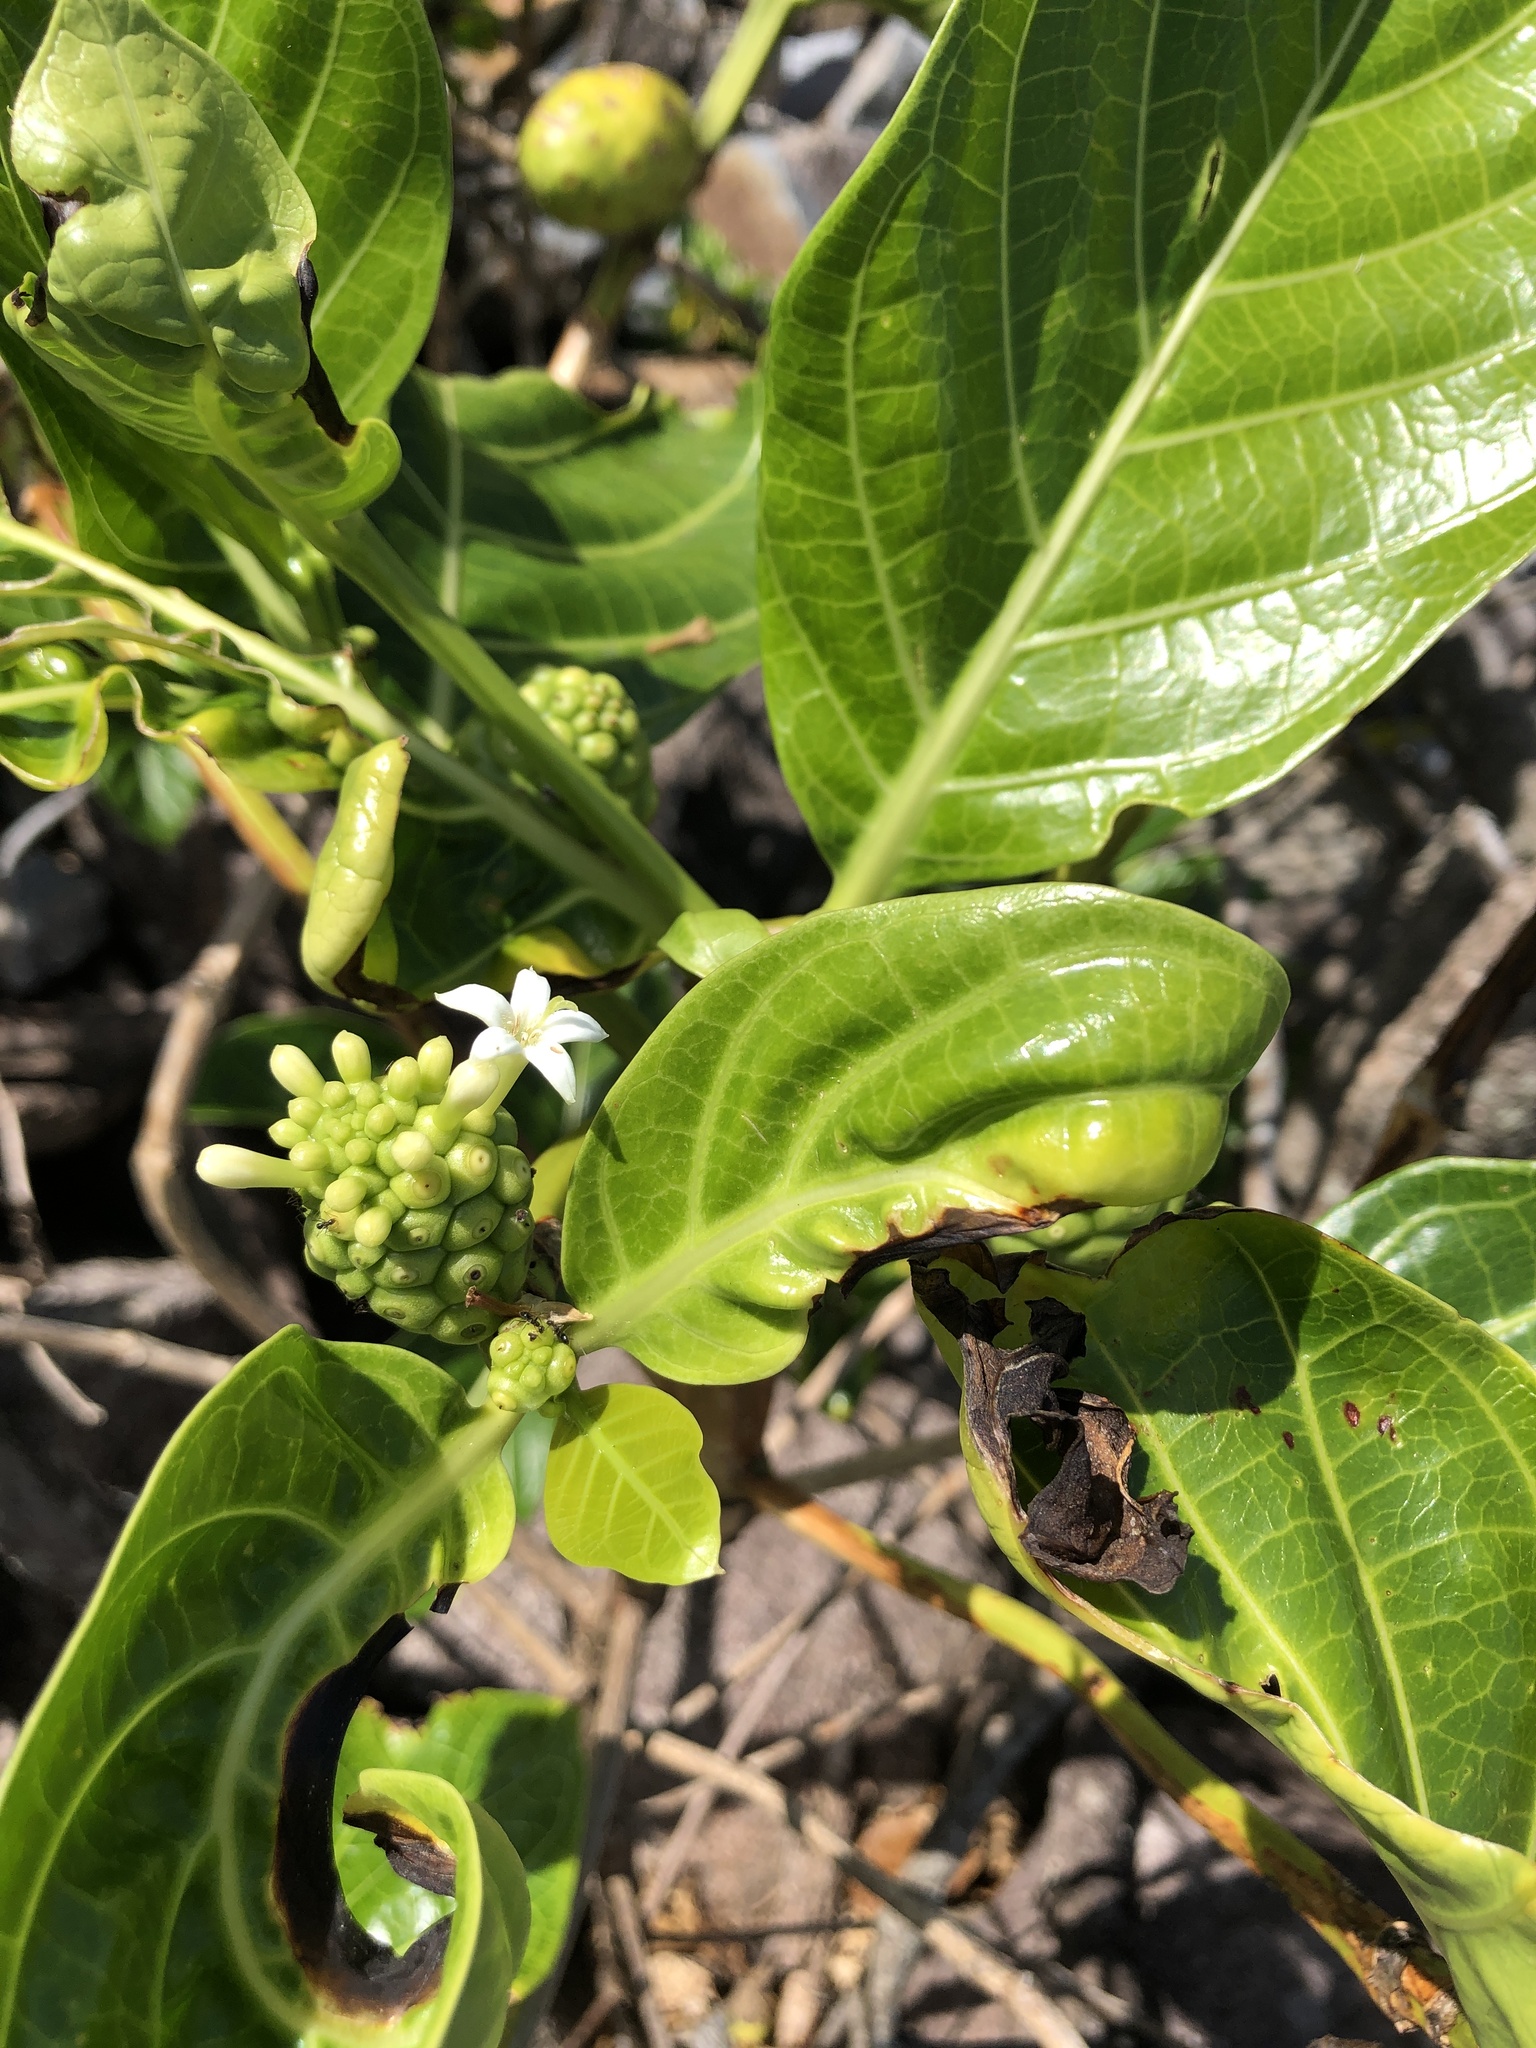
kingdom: Plantae
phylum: Tracheophyta
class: Magnoliopsida
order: Gentianales
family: Rubiaceae
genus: Morinda
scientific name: Morinda citrifolia
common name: Indian-mulberry
